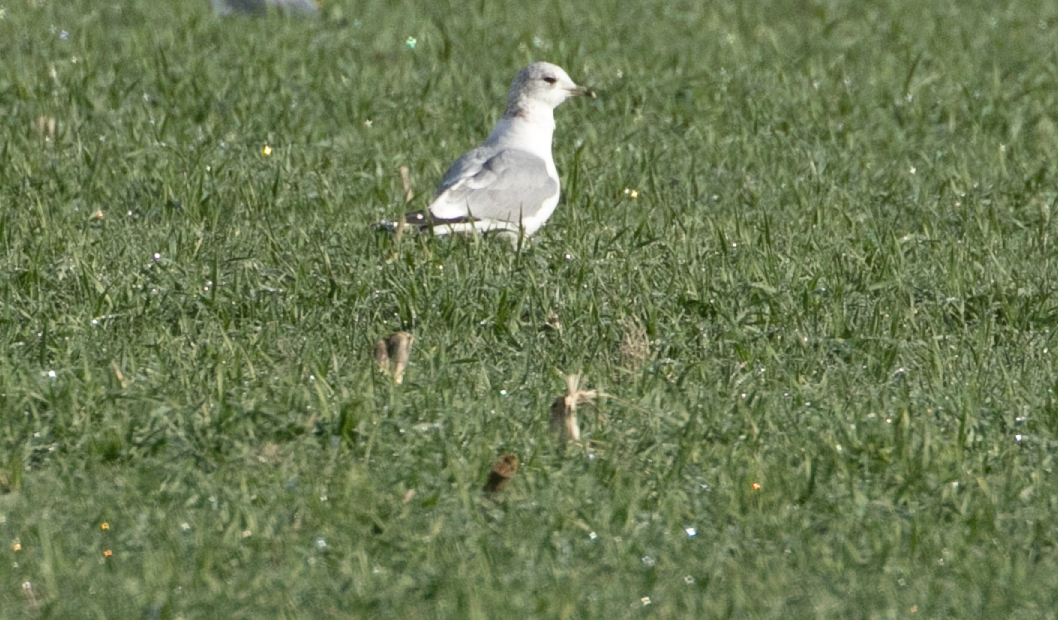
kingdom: Animalia
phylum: Chordata
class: Aves
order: Charadriiformes
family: Laridae
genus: Larus
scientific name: Larus canus
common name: Mew gull
